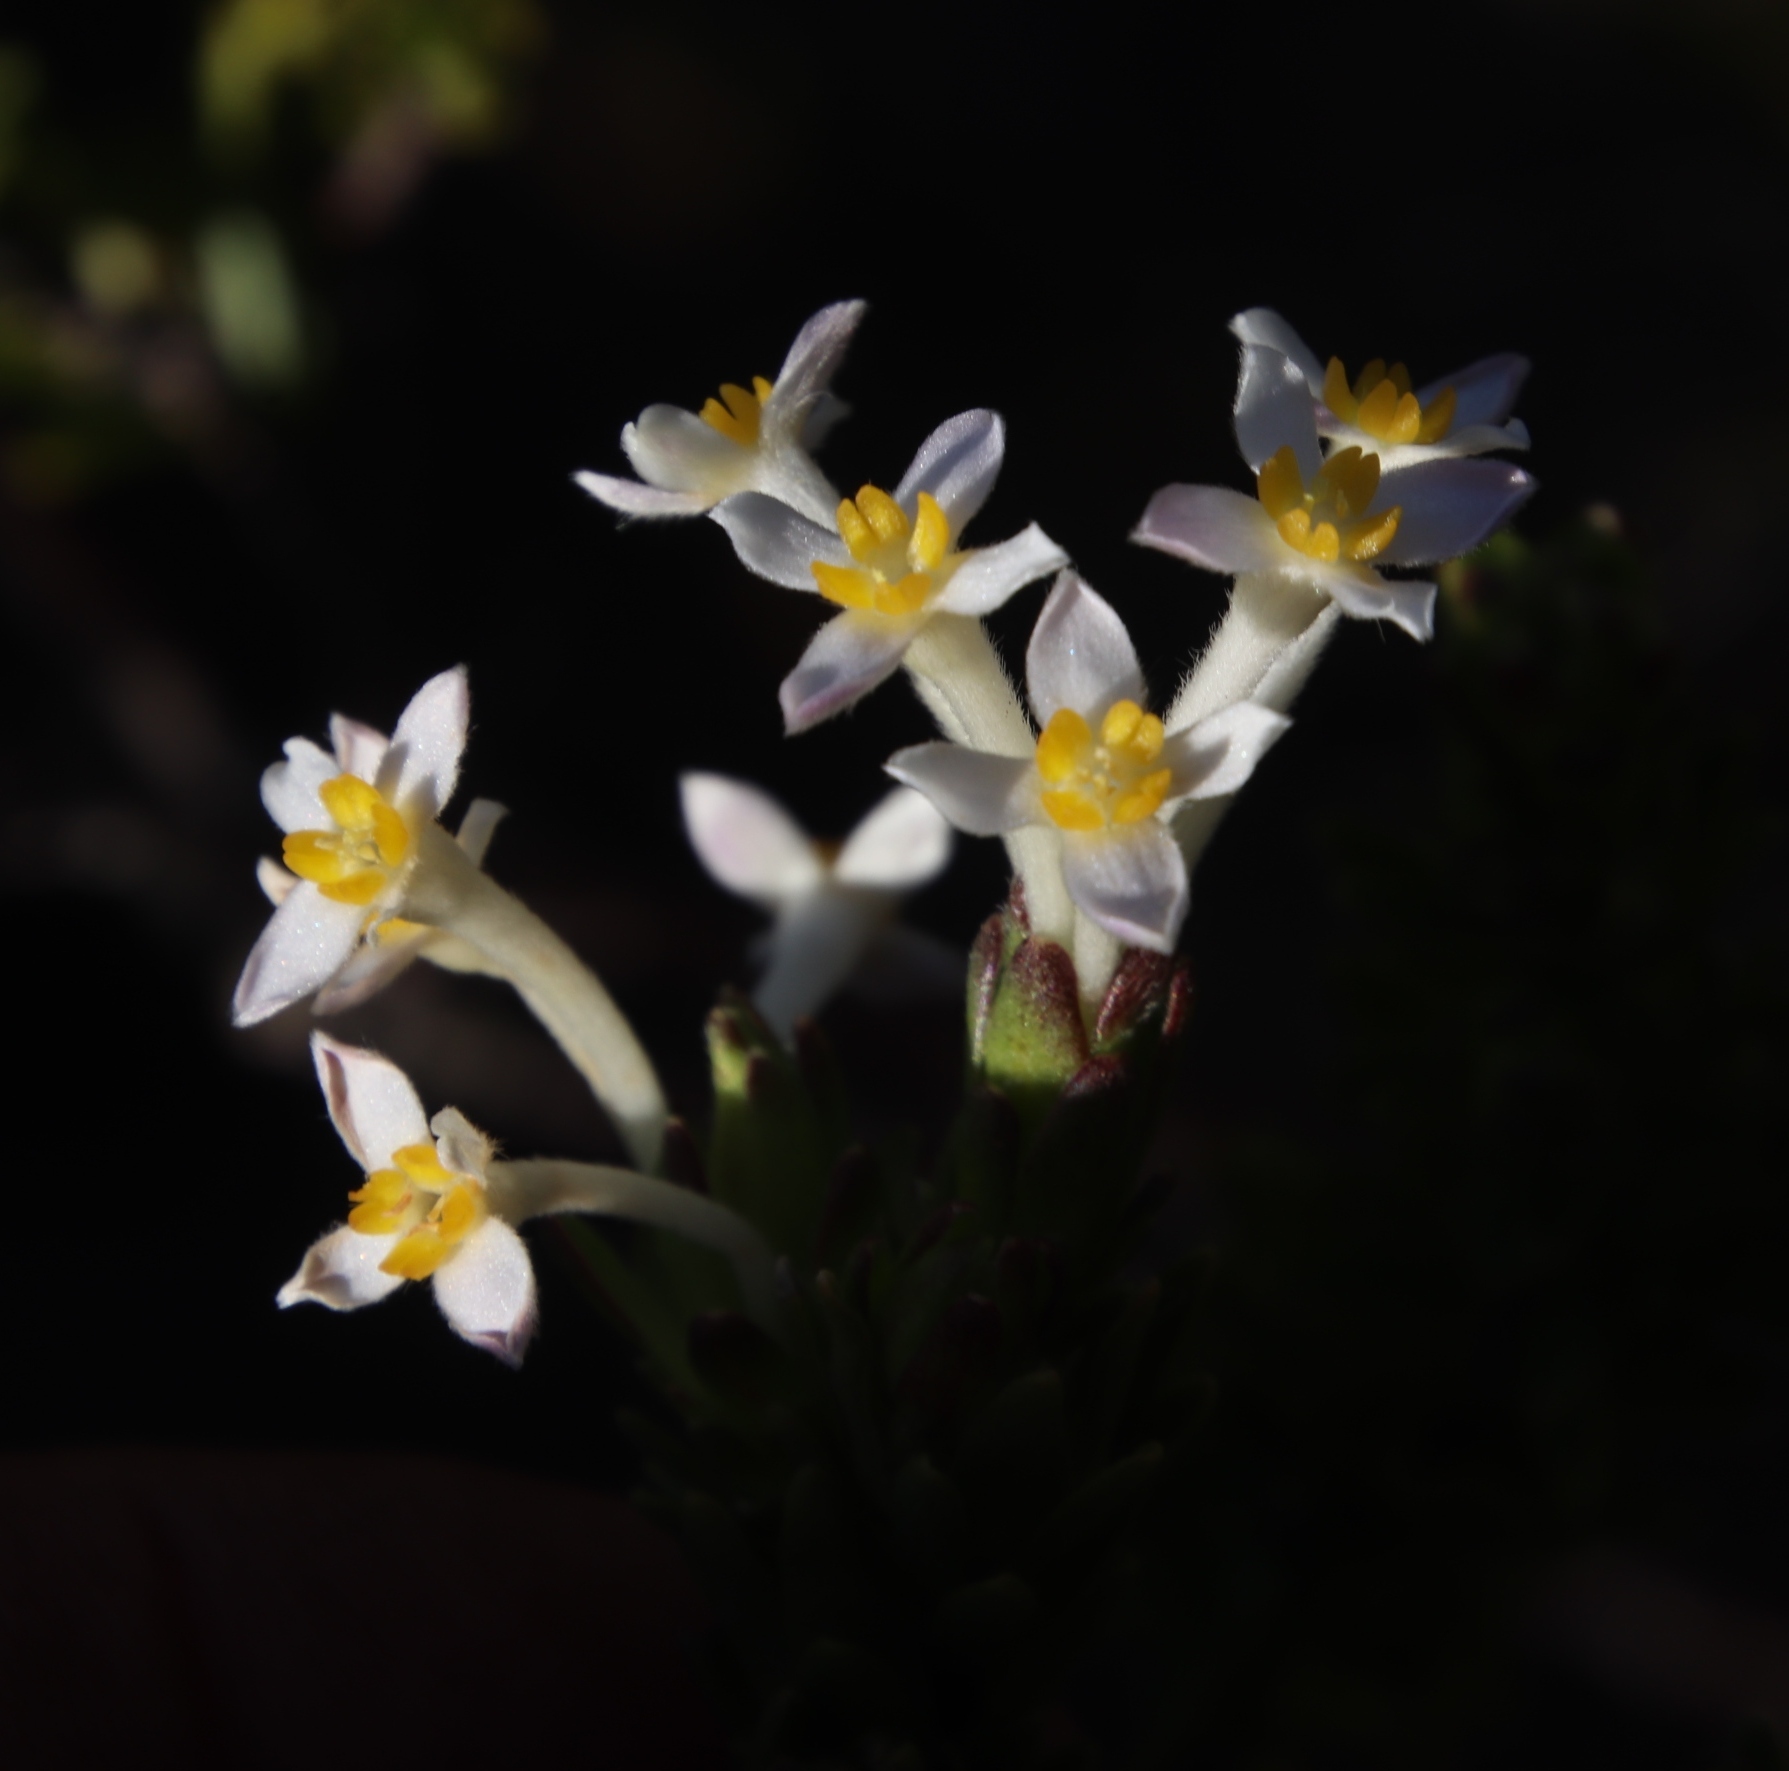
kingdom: Plantae
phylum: Tracheophyta
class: Magnoliopsida
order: Malvales
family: Thymelaeaceae
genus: Gnidia
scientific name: Gnidia tomentosa
